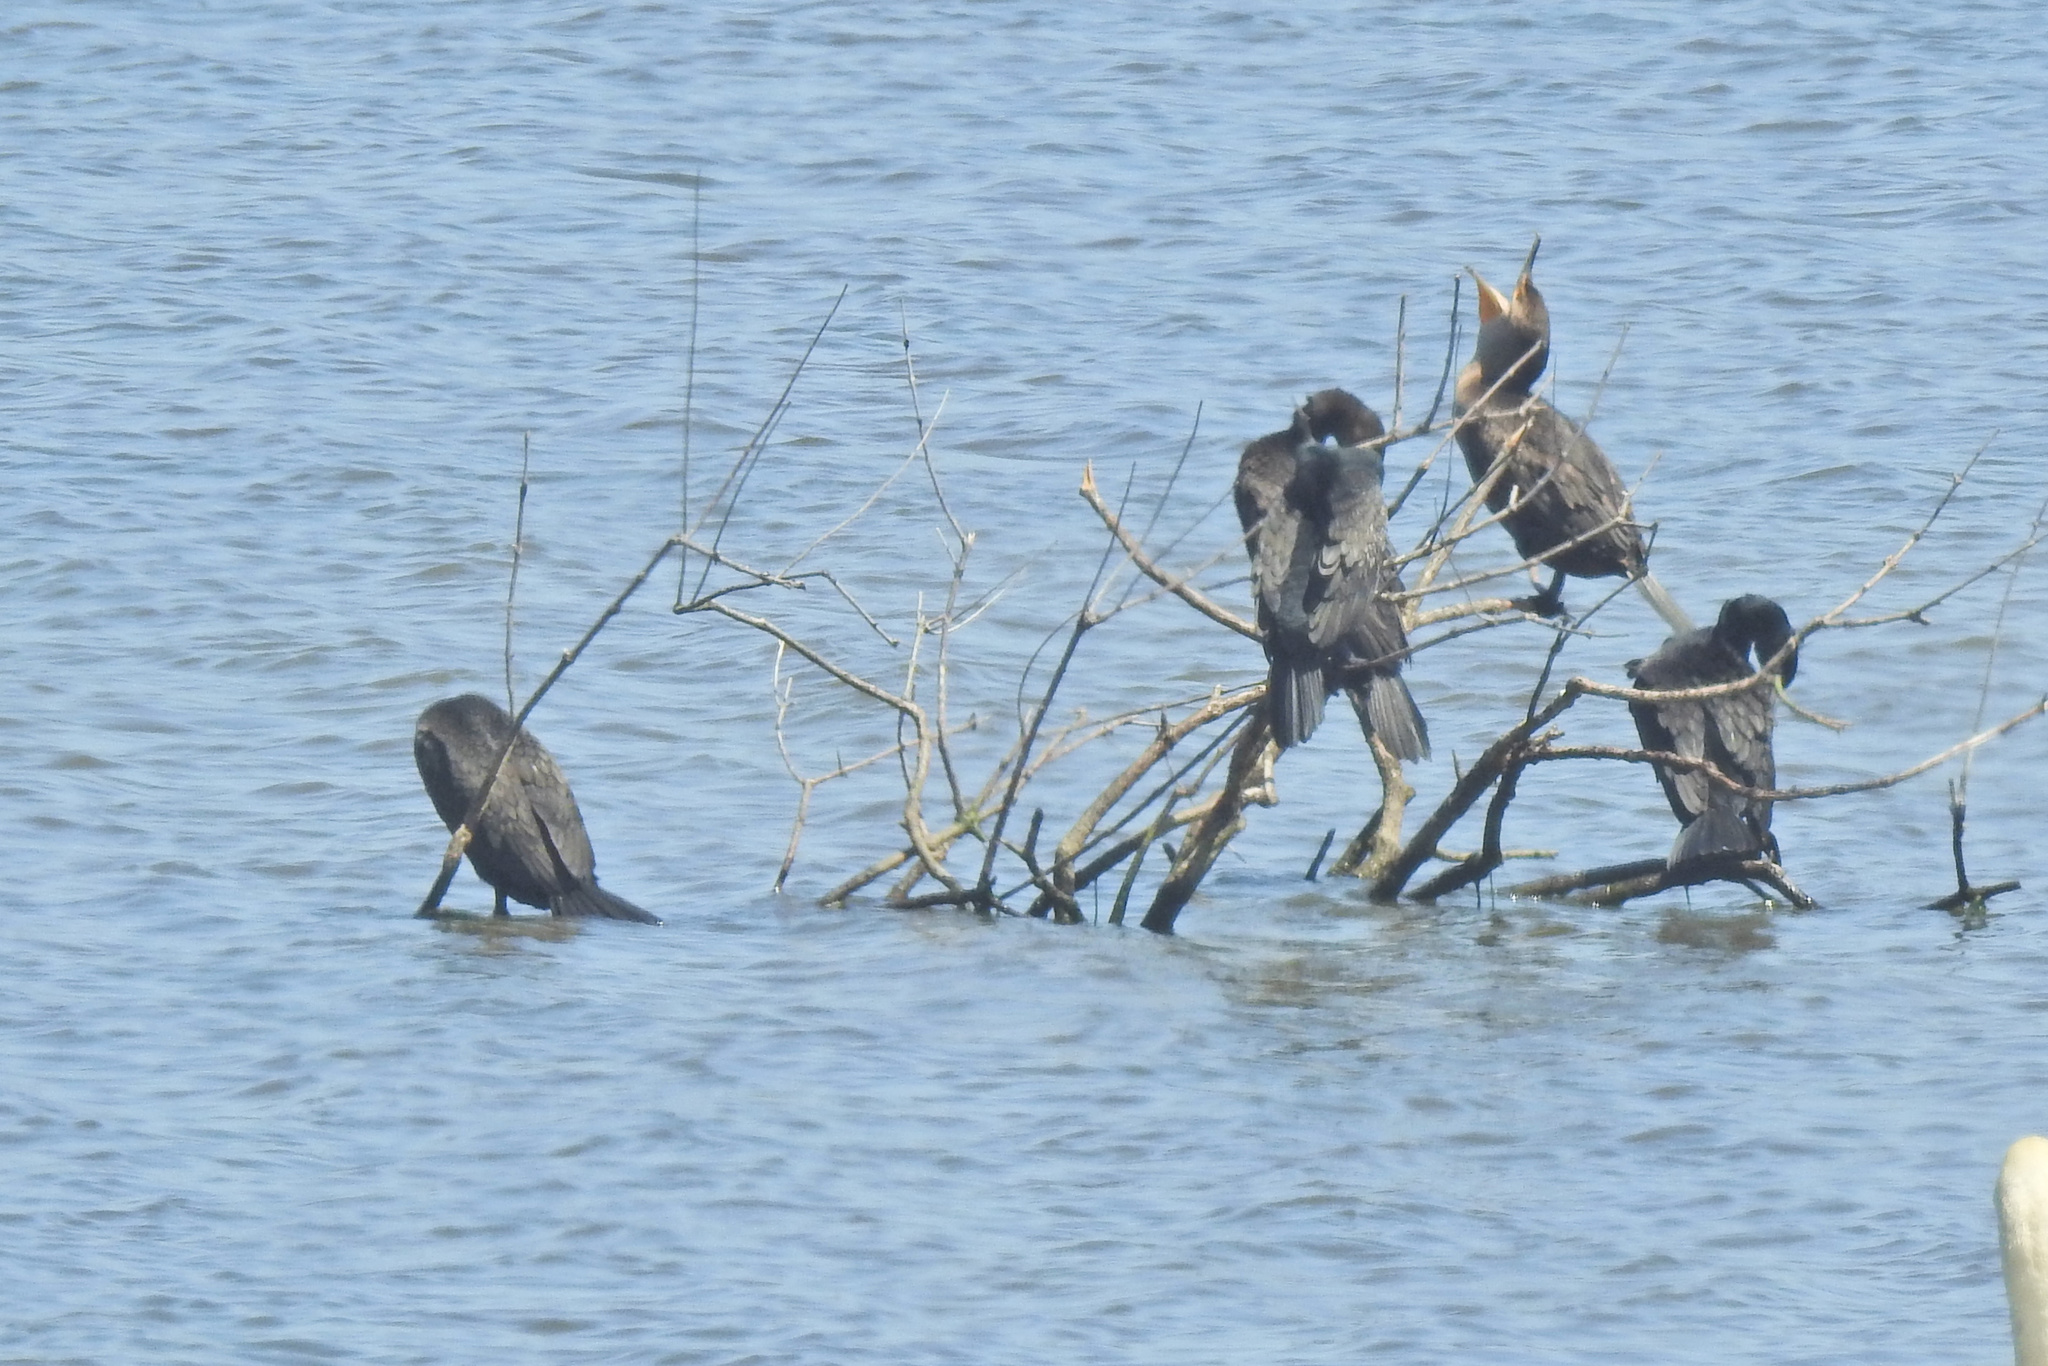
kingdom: Animalia
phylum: Chordata
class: Aves
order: Suliformes
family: Phalacrocoracidae
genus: Phalacrocorax
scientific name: Phalacrocorax auritus
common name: Double-crested cormorant
